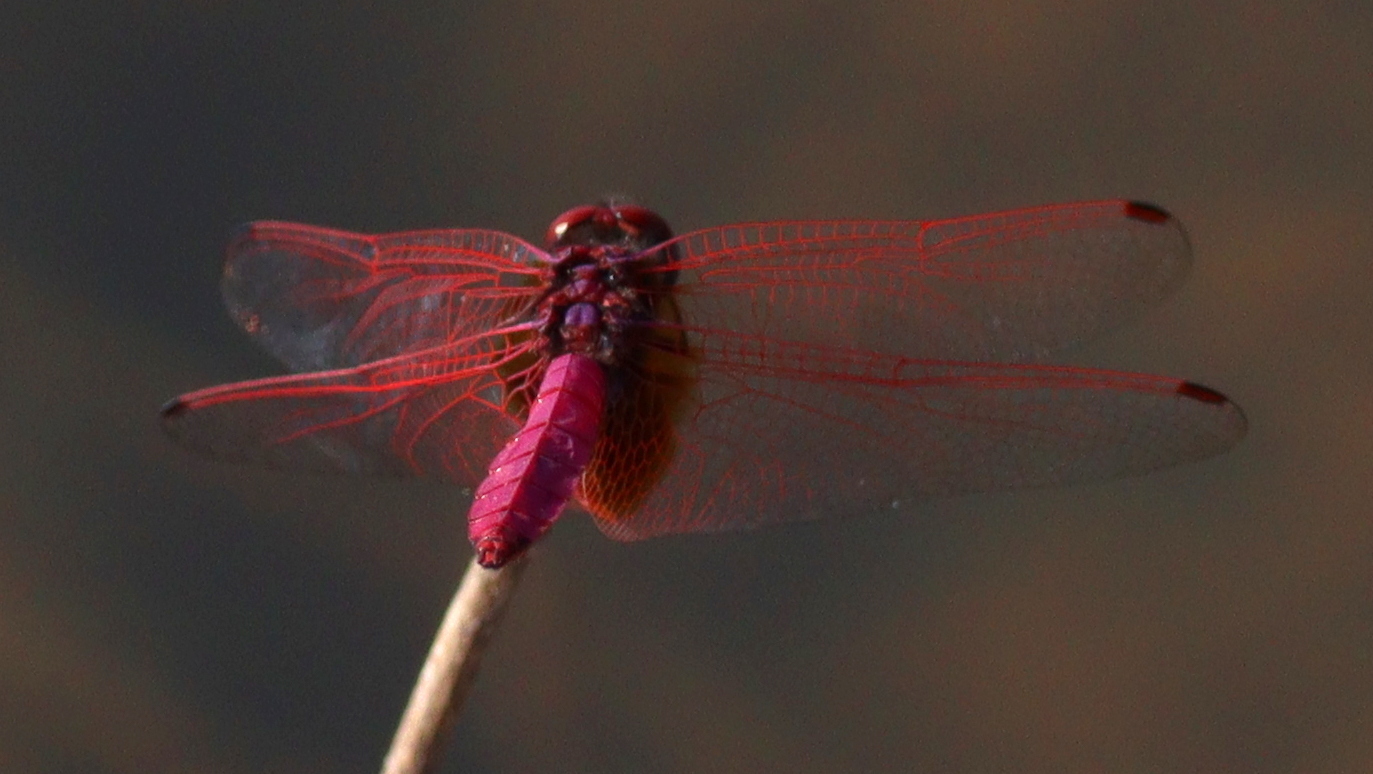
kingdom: Animalia
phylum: Arthropoda
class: Insecta
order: Odonata
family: Libellulidae
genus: Trithemis
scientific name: Trithemis aurora
